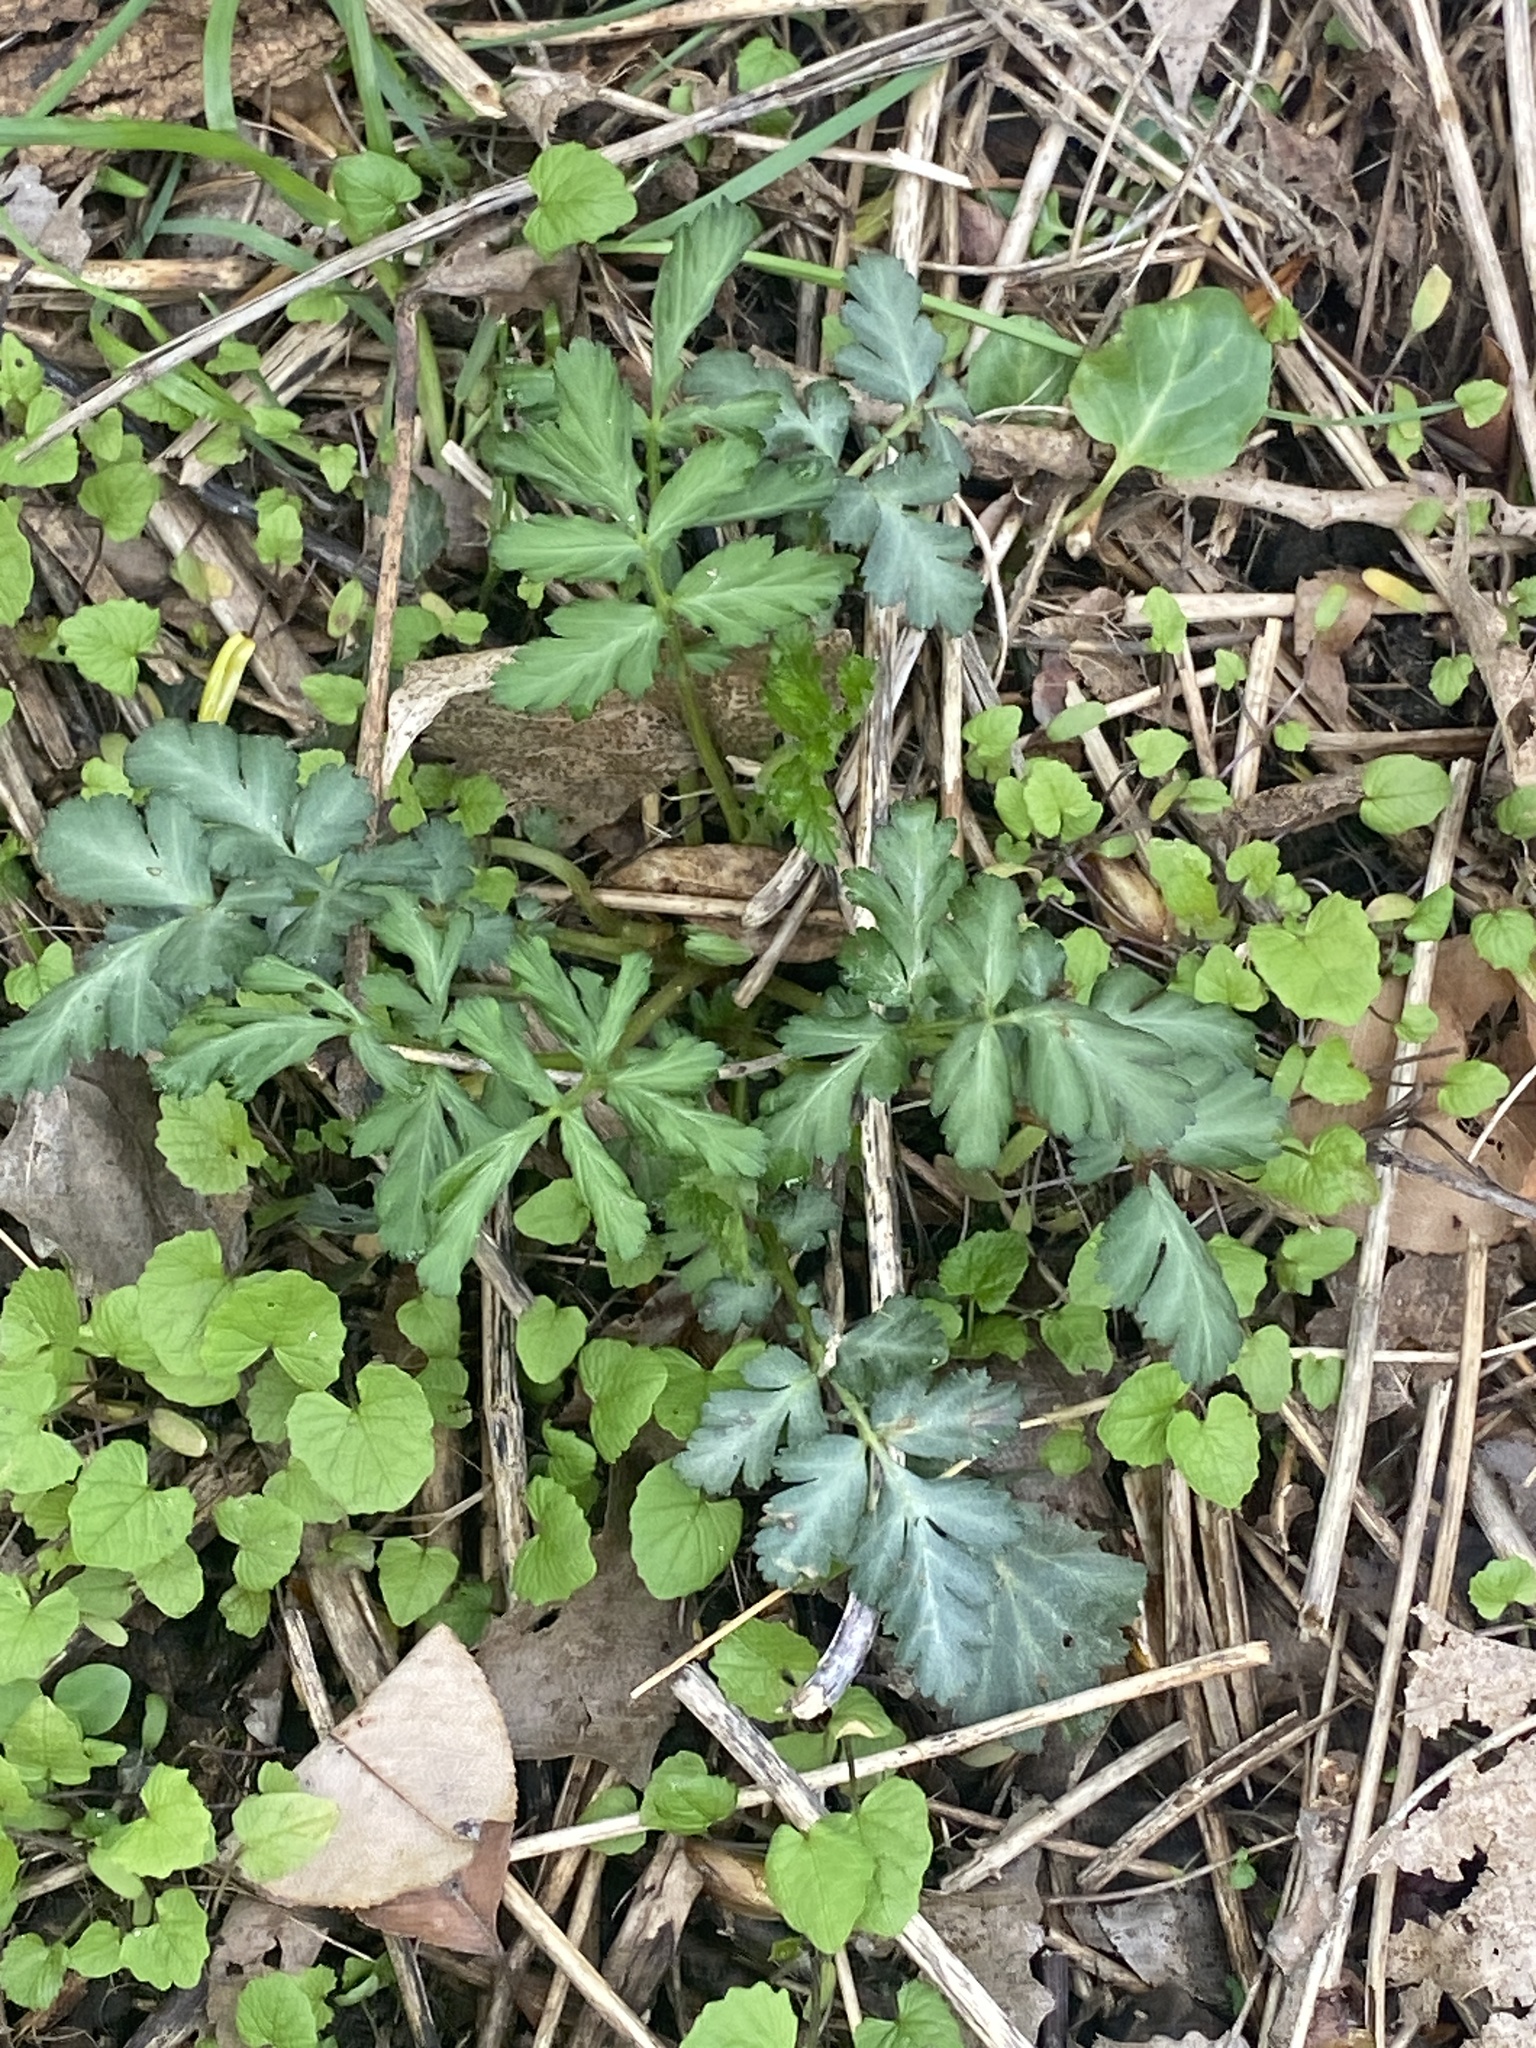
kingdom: Plantae
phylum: Tracheophyta
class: Magnoliopsida
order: Rosales
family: Rosaceae
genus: Geum
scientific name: Geum canadense
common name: White avens
